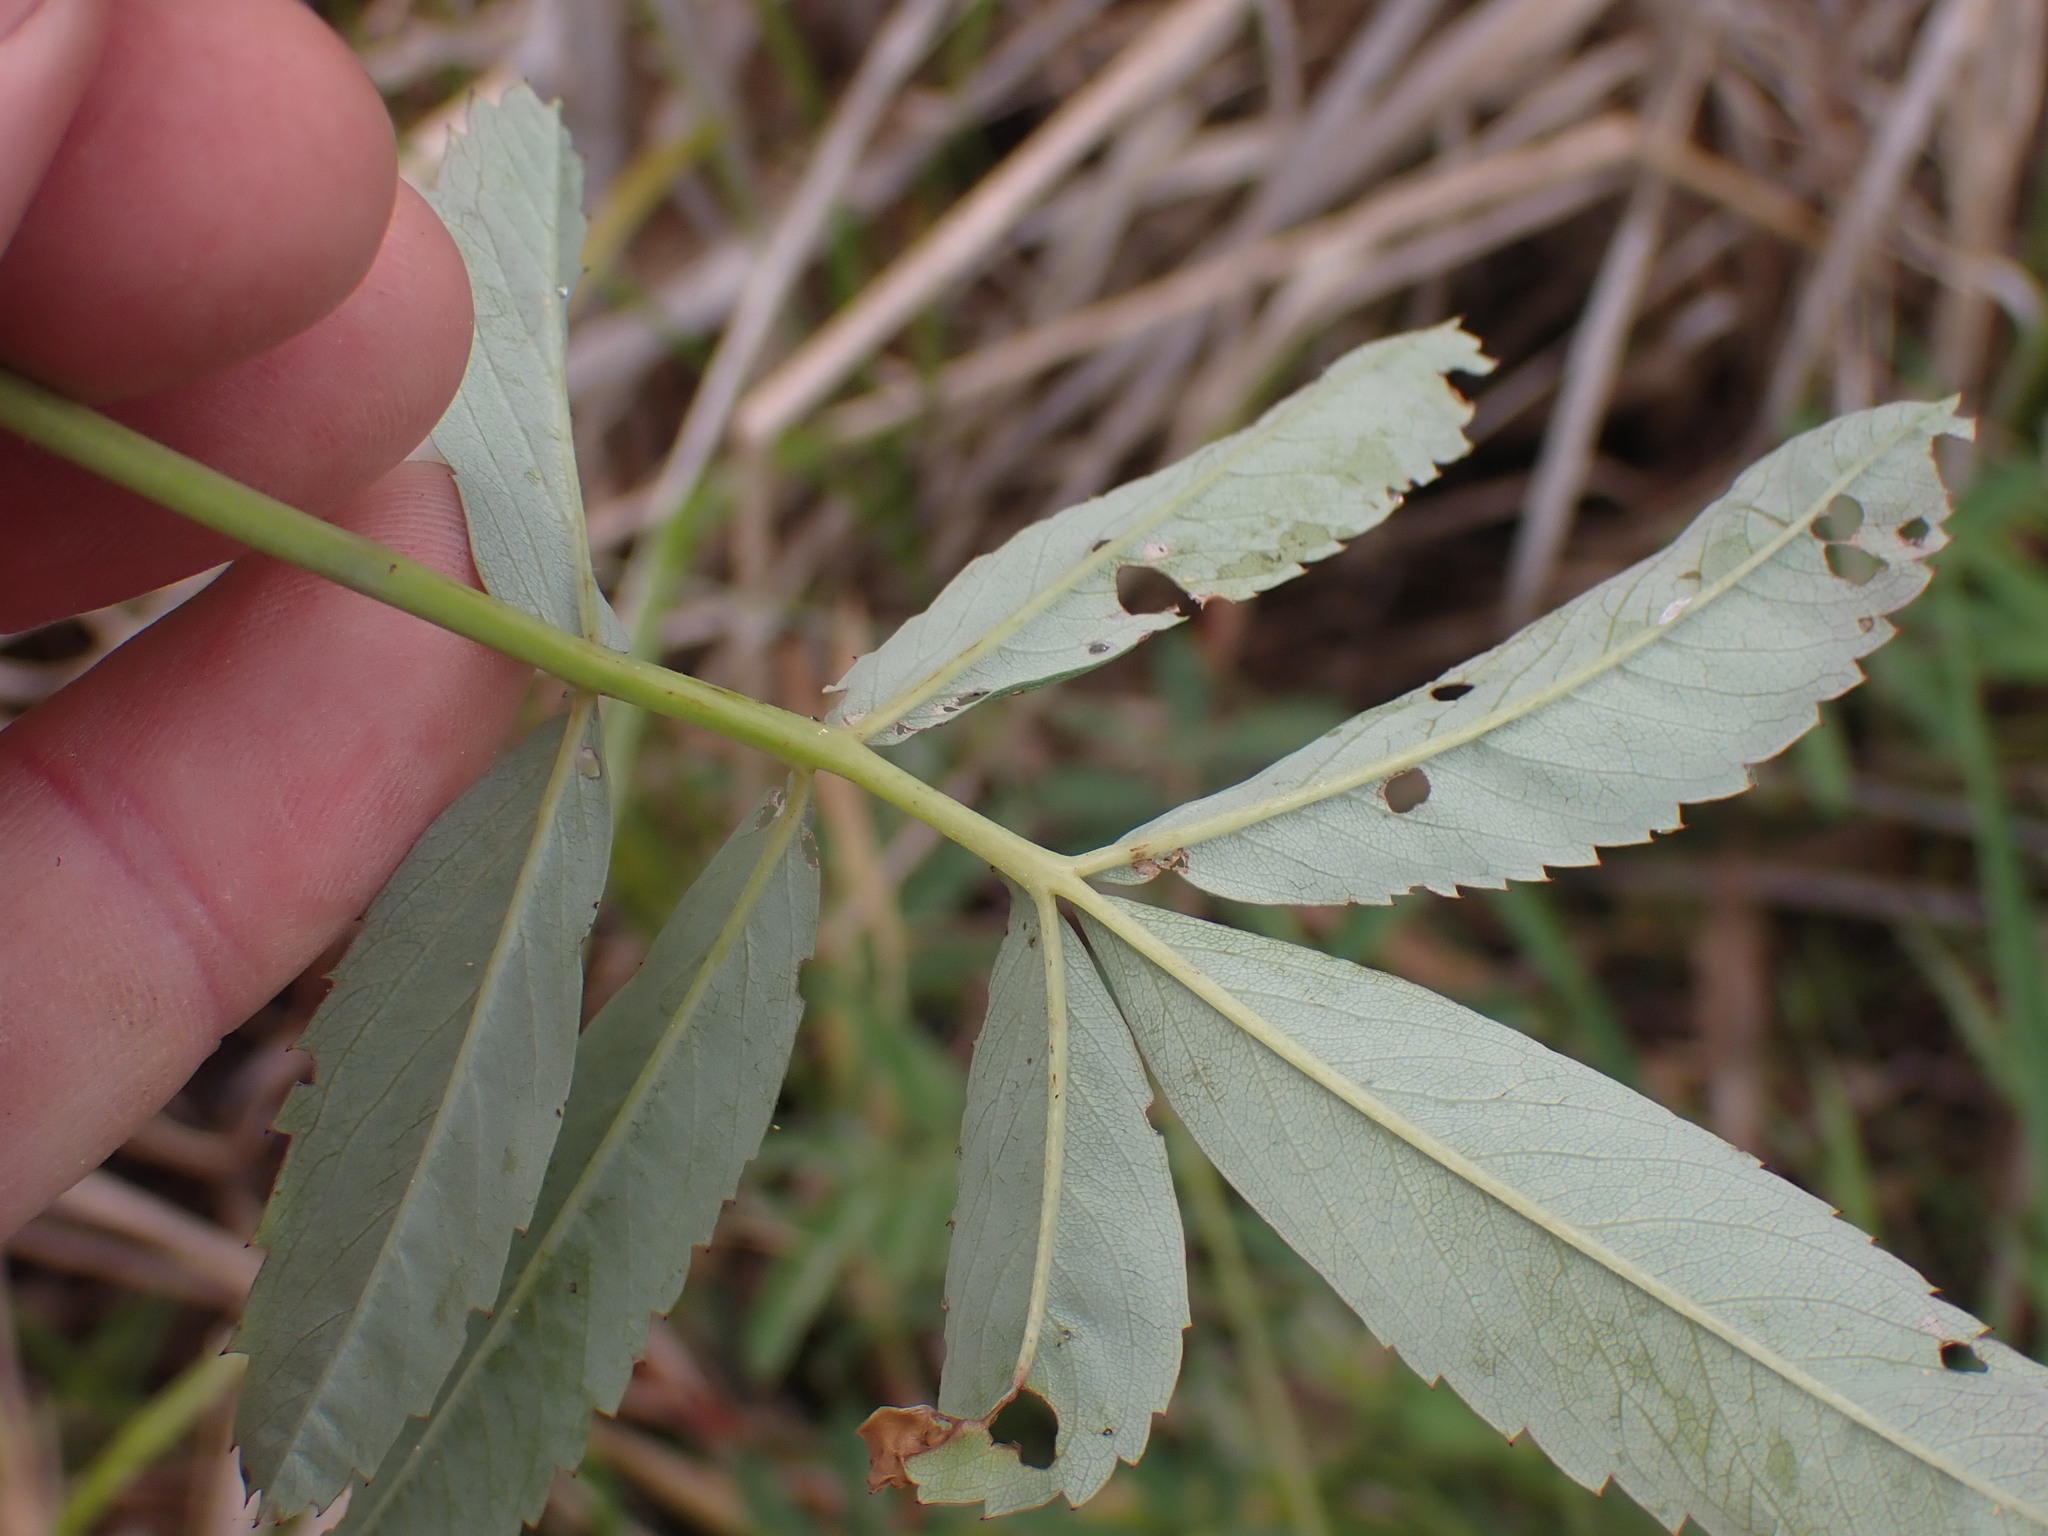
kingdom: Plantae
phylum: Tracheophyta
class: Magnoliopsida
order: Rosales
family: Rosaceae
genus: Comarum
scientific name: Comarum palustre
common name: Marsh cinquefoil
